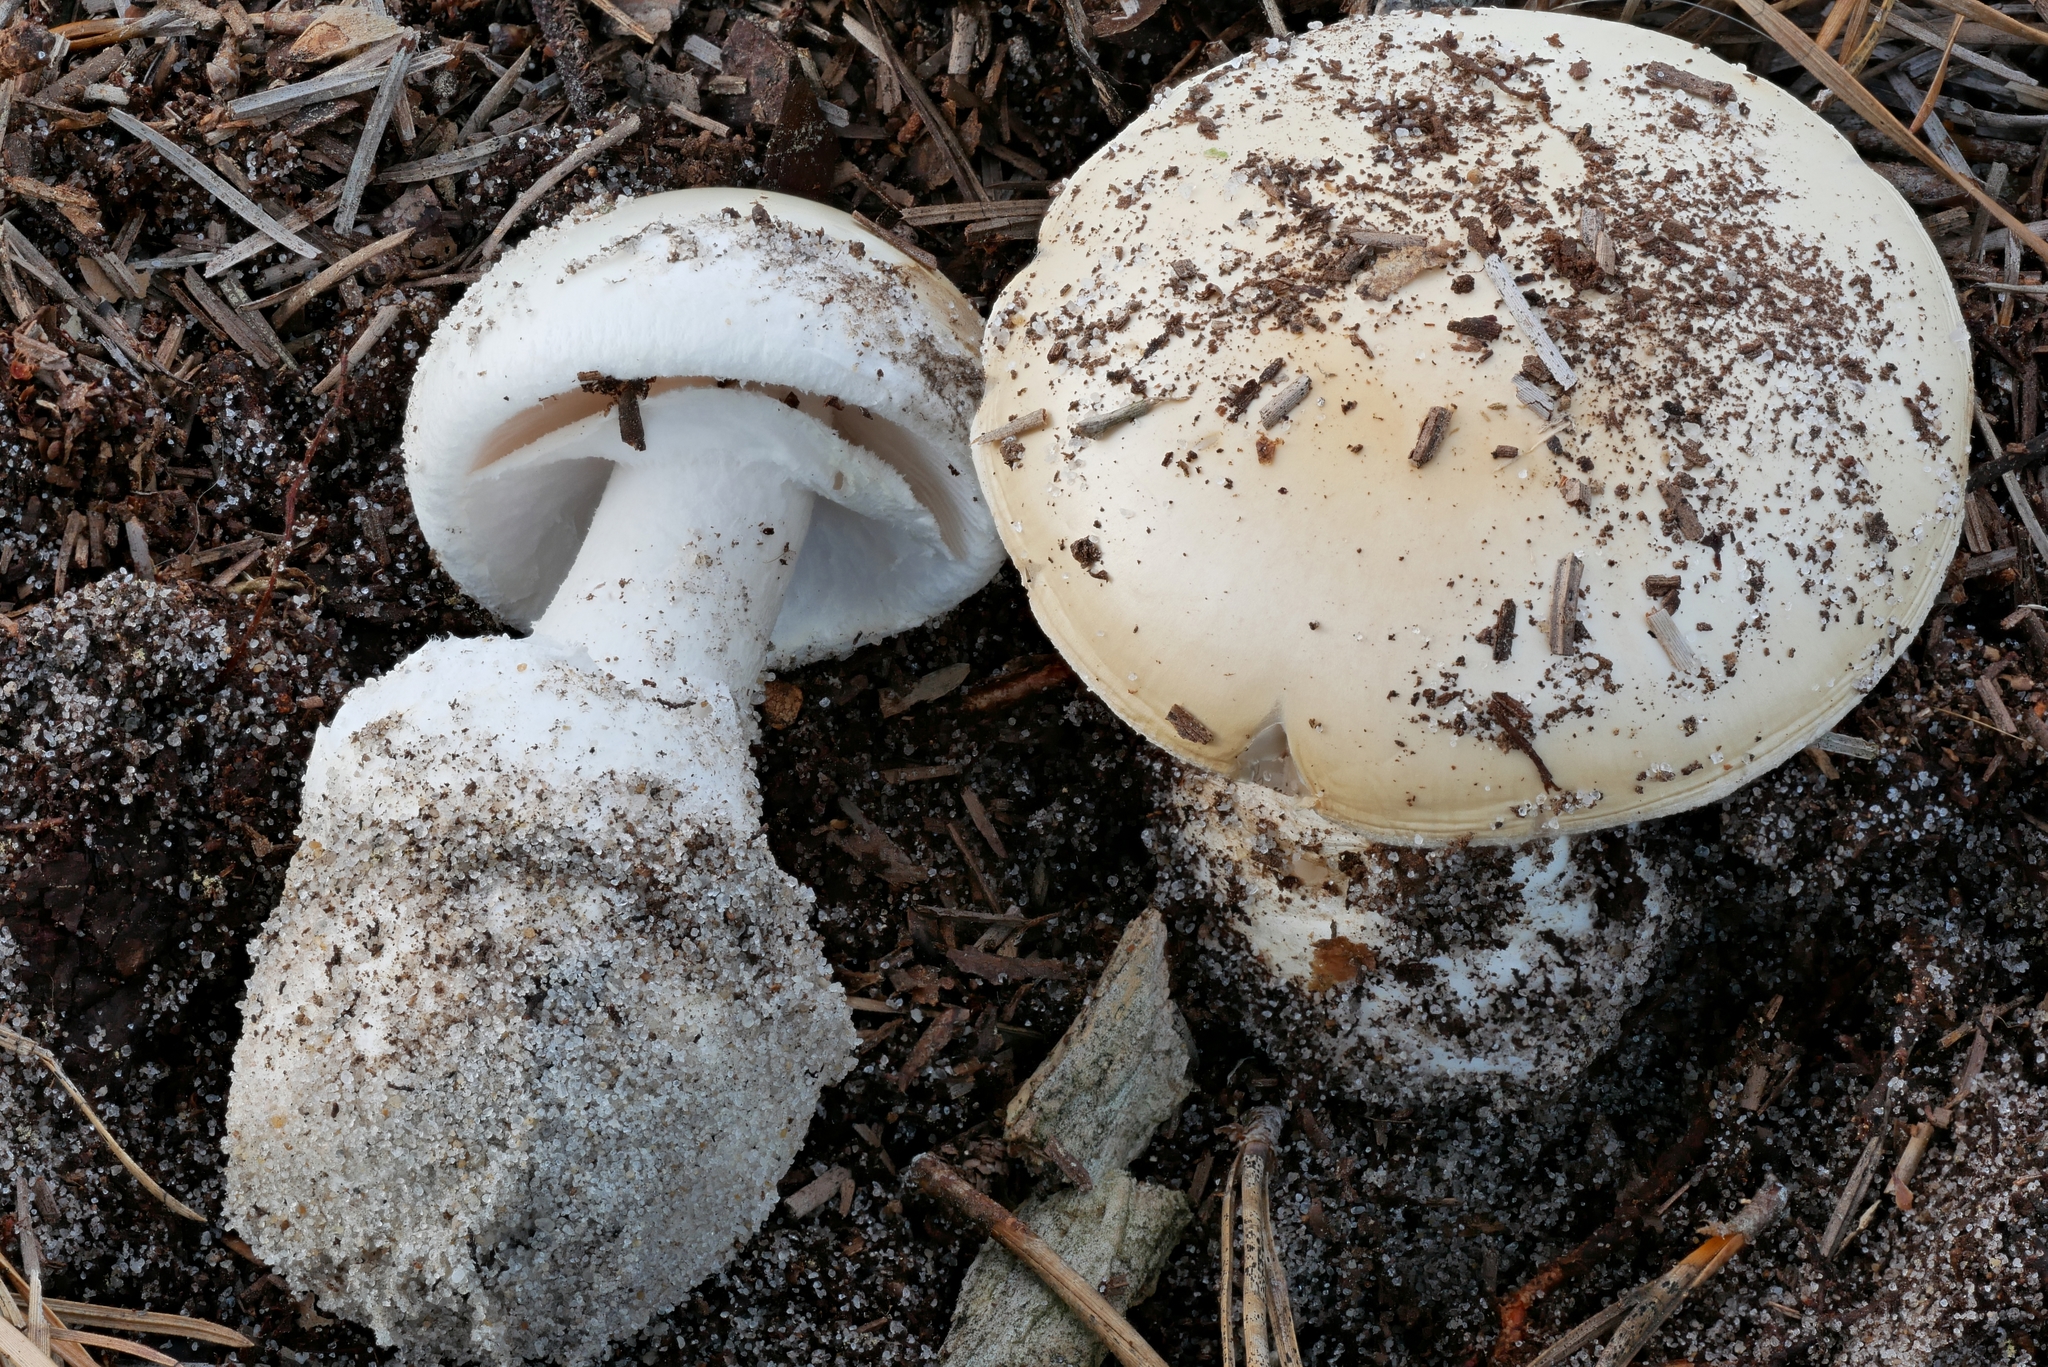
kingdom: Fungi
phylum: Basidiomycota
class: Agaricomycetes
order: Agaricales
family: Amanitaceae
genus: Amanita
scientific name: Amanita
